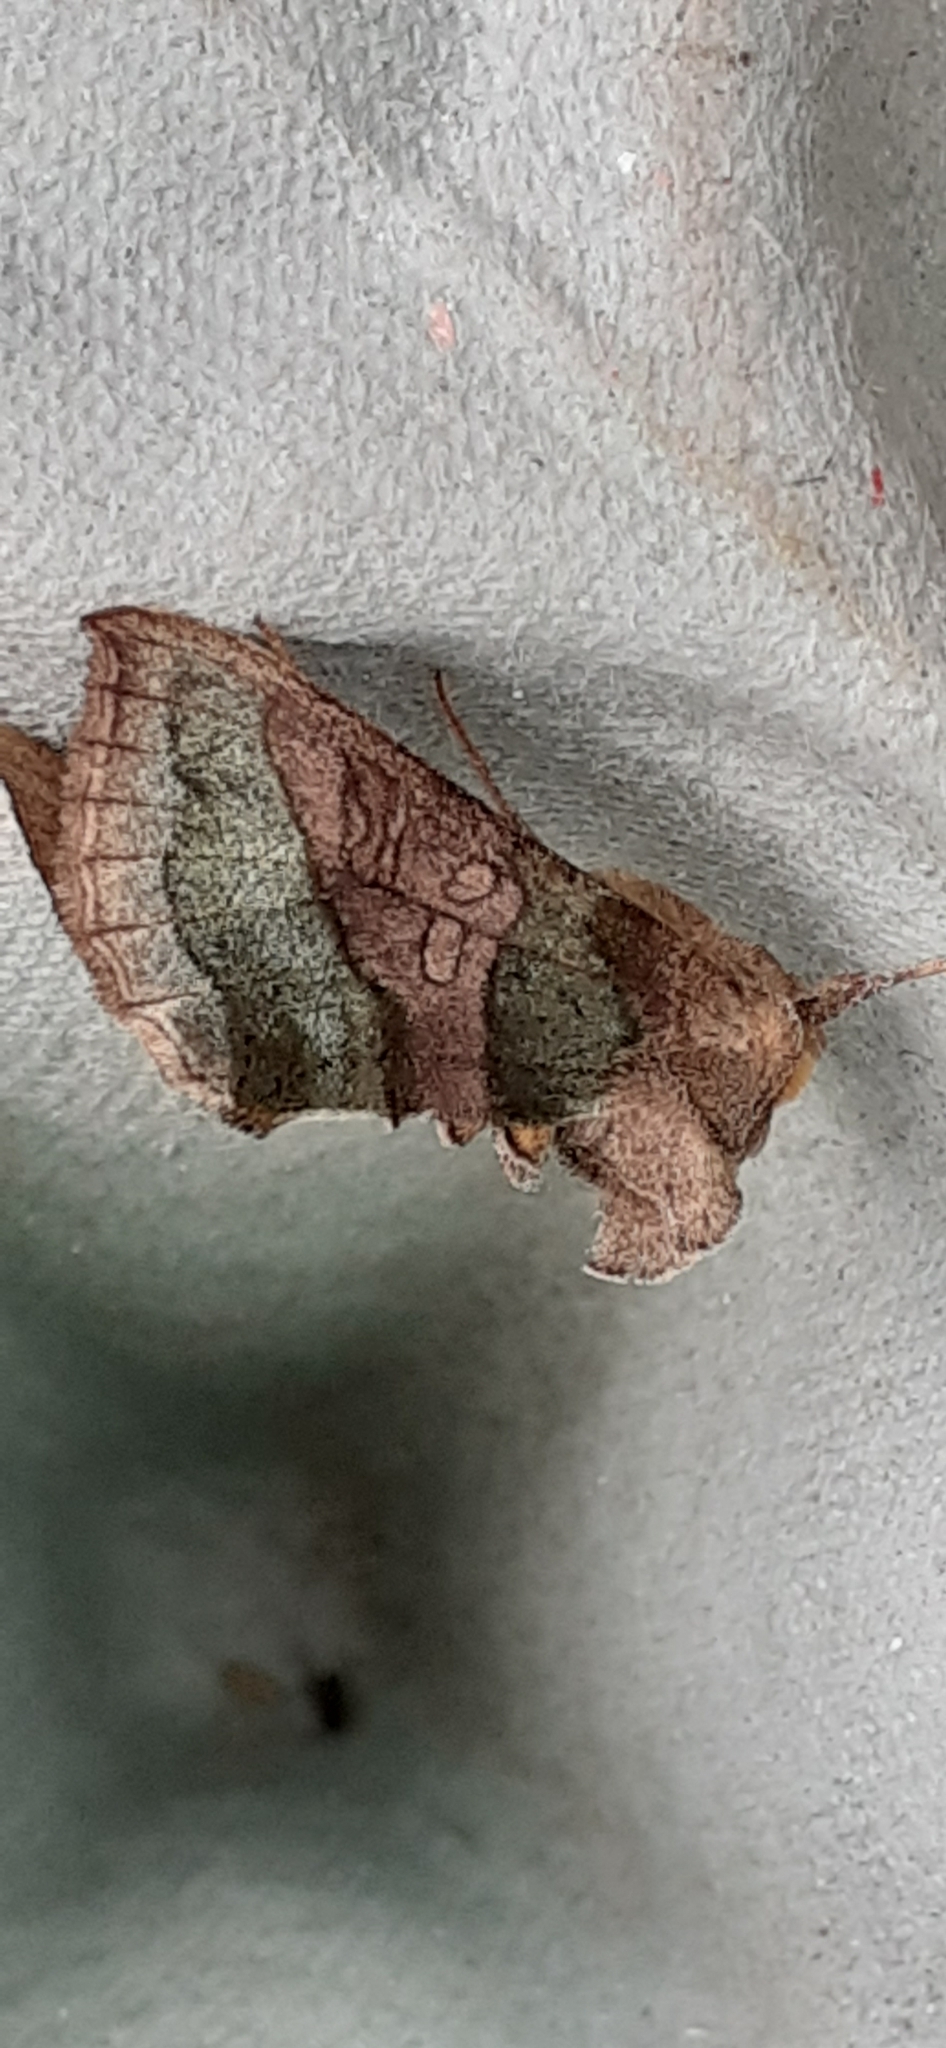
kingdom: Animalia
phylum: Arthropoda
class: Insecta
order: Lepidoptera
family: Noctuidae
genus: Diachrysia
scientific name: Diachrysia chrysitis
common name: Burnished brass
